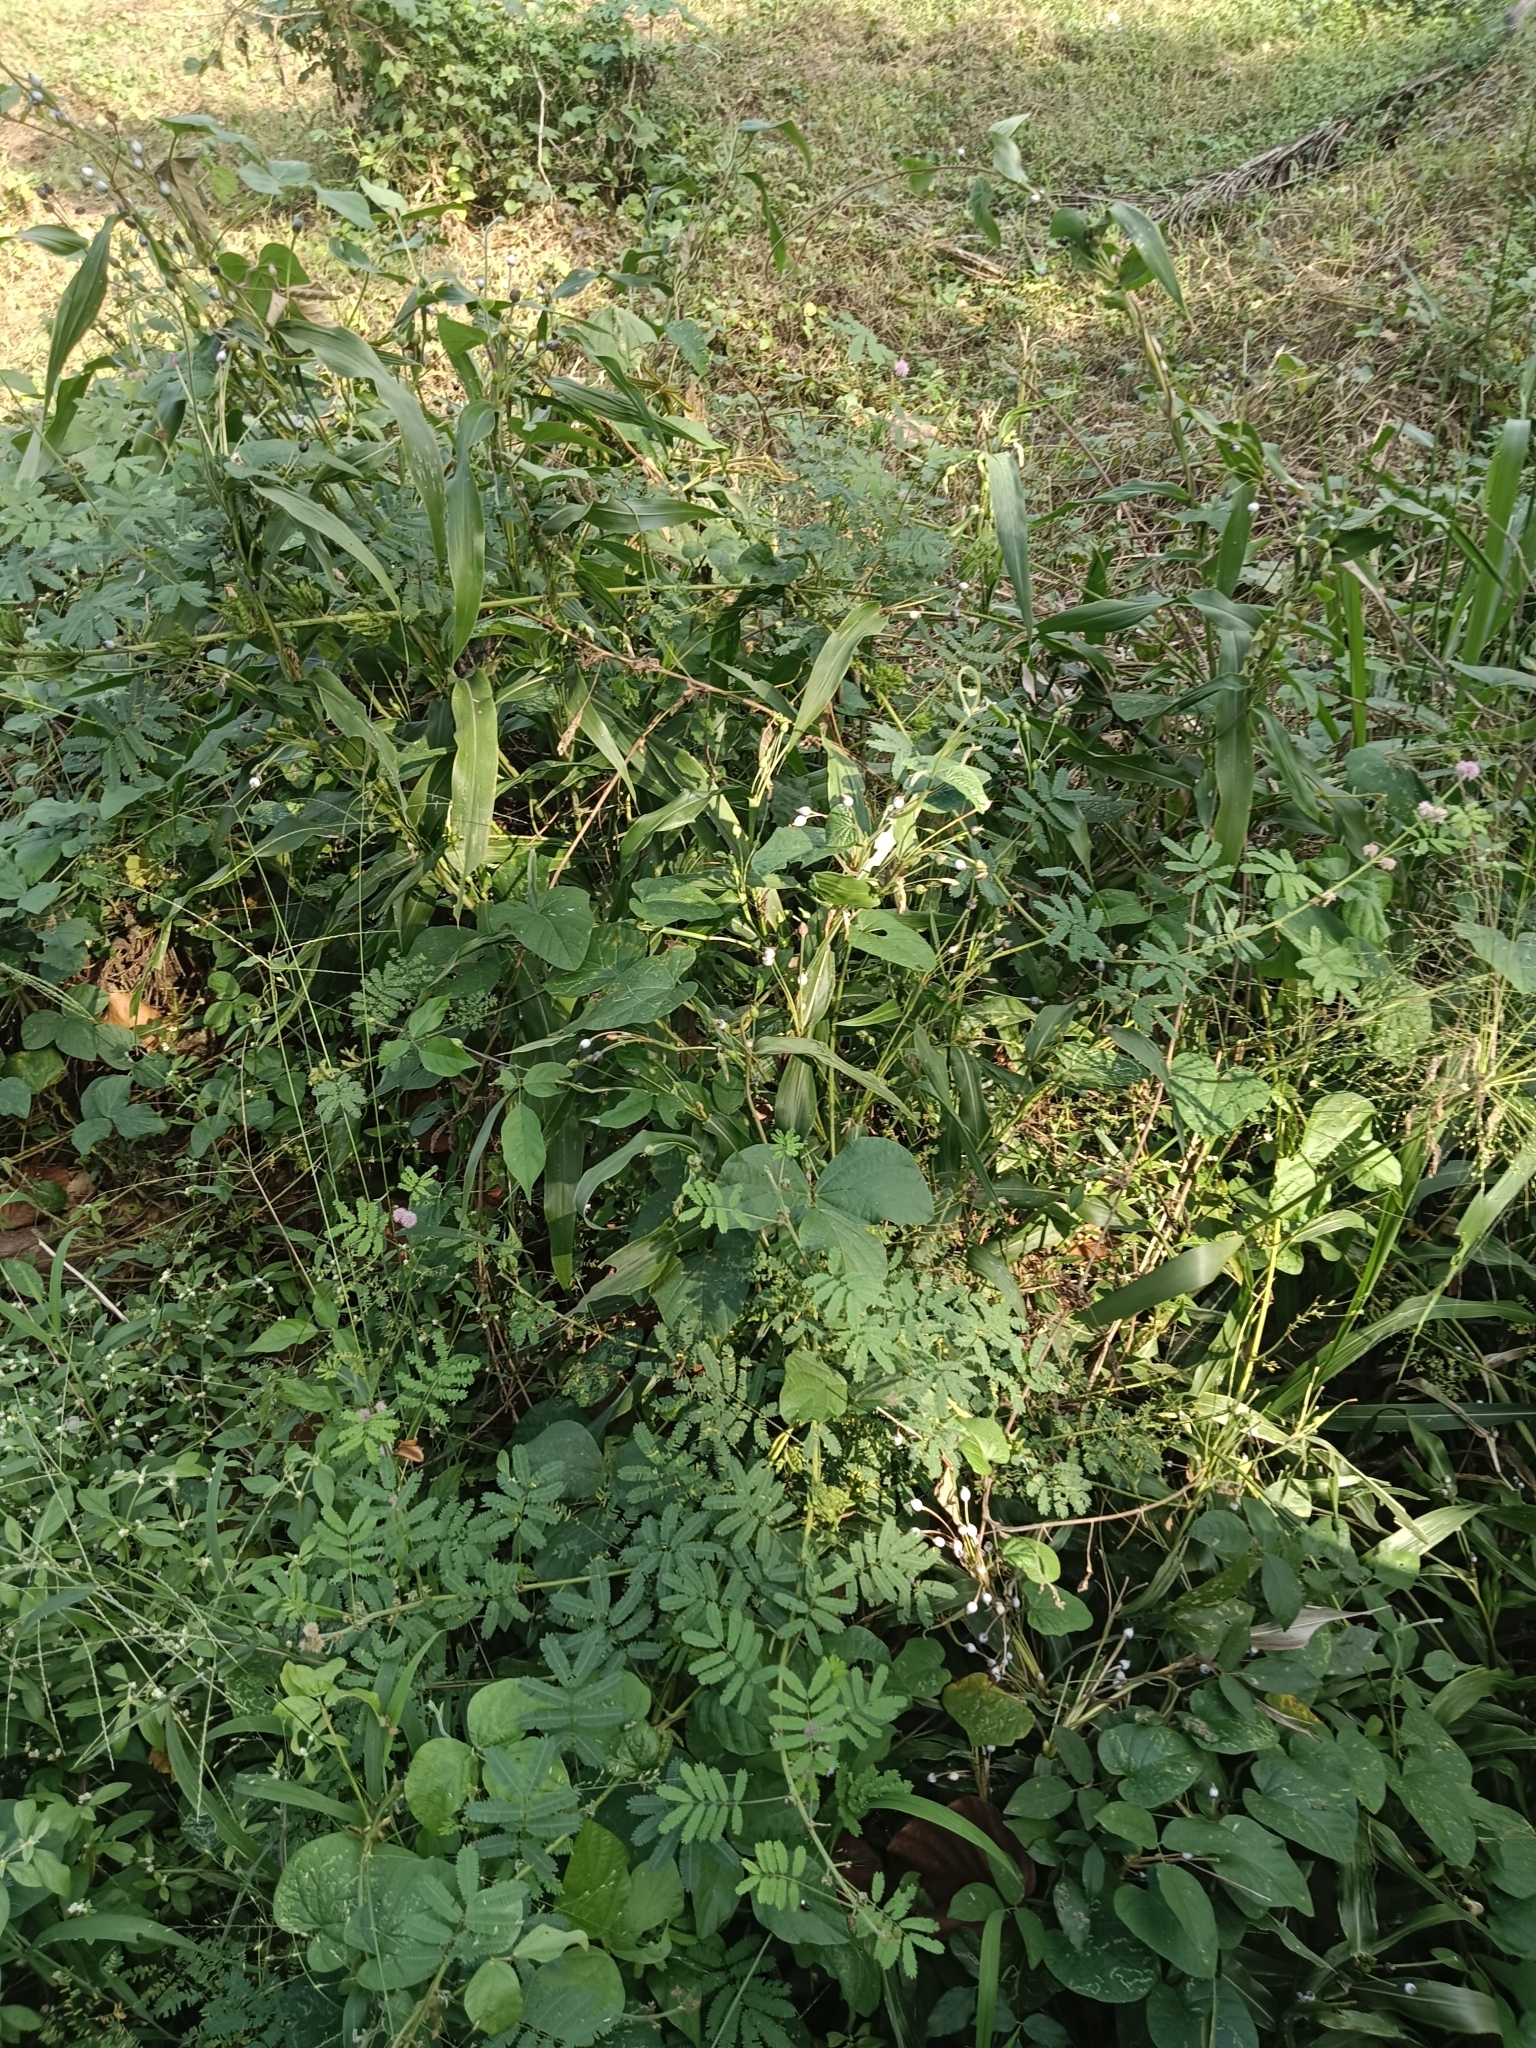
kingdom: Plantae
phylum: Tracheophyta
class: Magnoliopsida
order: Fabales
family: Fabaceae
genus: Mimosa
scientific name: Mimosa diplotricha
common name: Giant sensitive-plant
